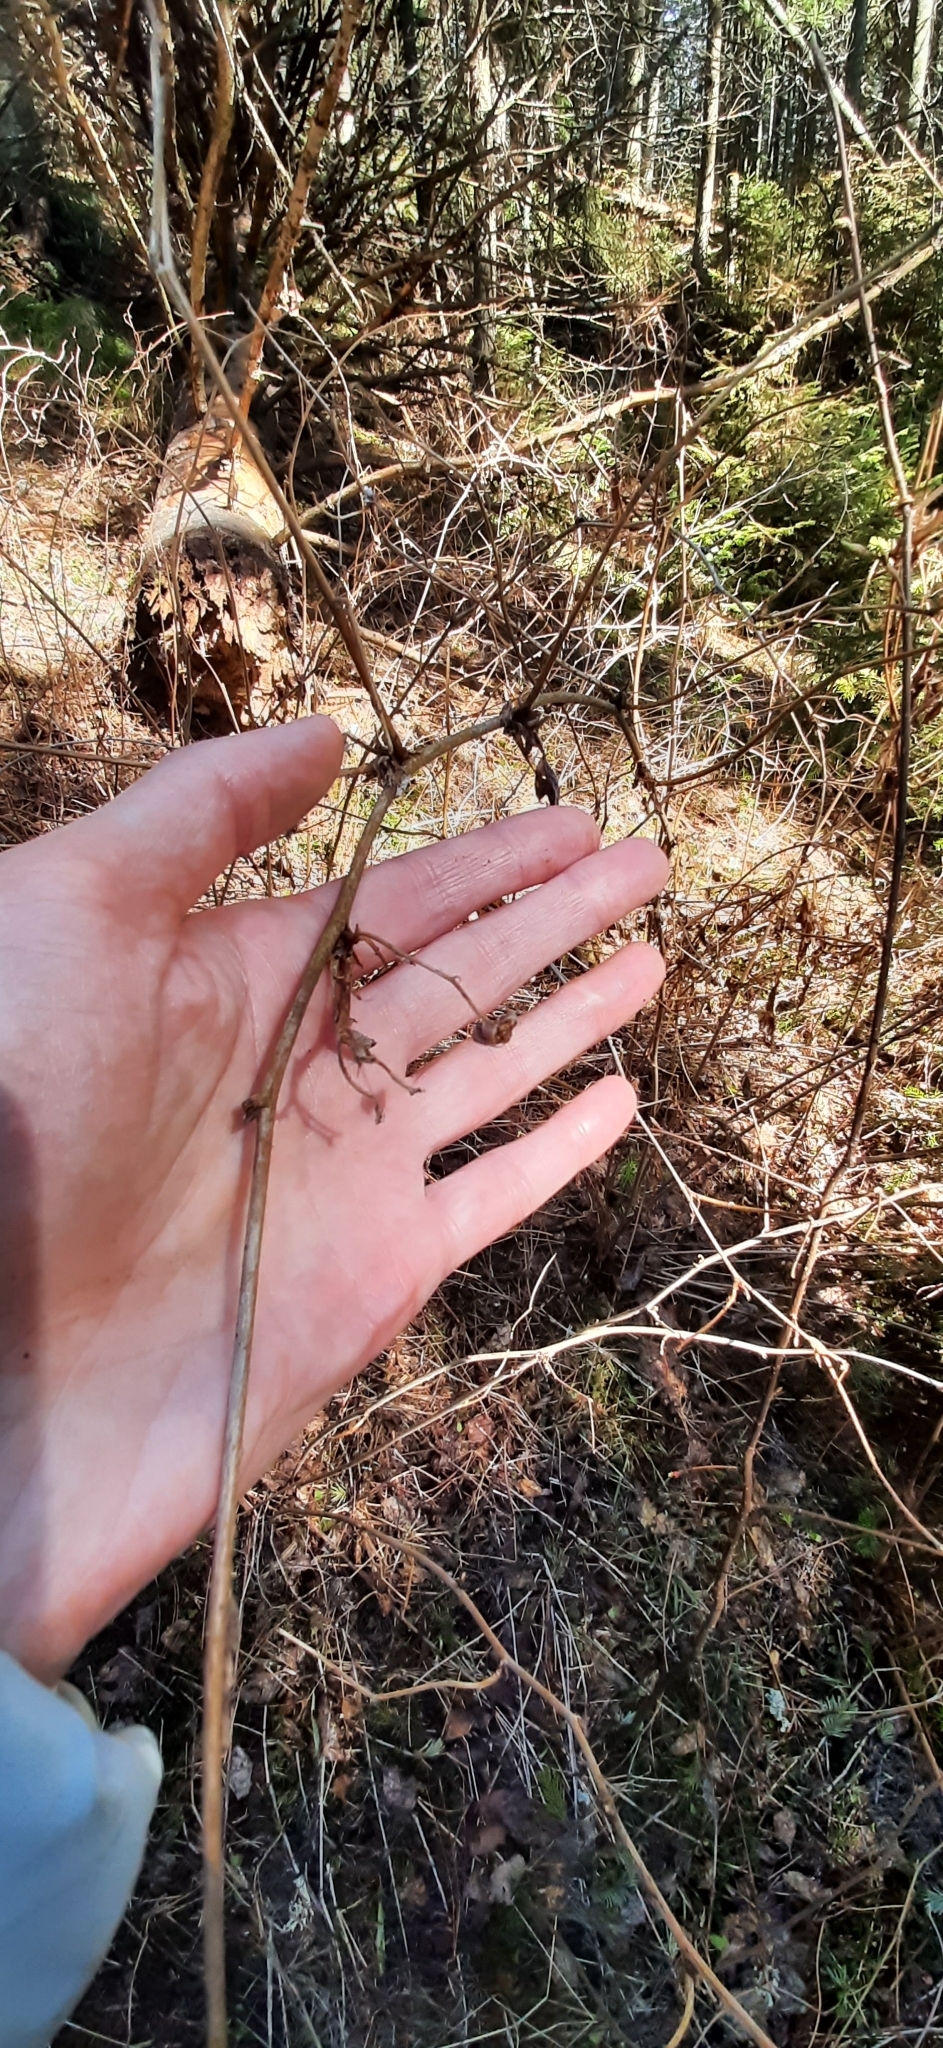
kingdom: Plantae
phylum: Tracheophyta
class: Magnoliopsida
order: Rosales
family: Rosaceae
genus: Rubus
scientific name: Rubus idaeus
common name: Raspberry
